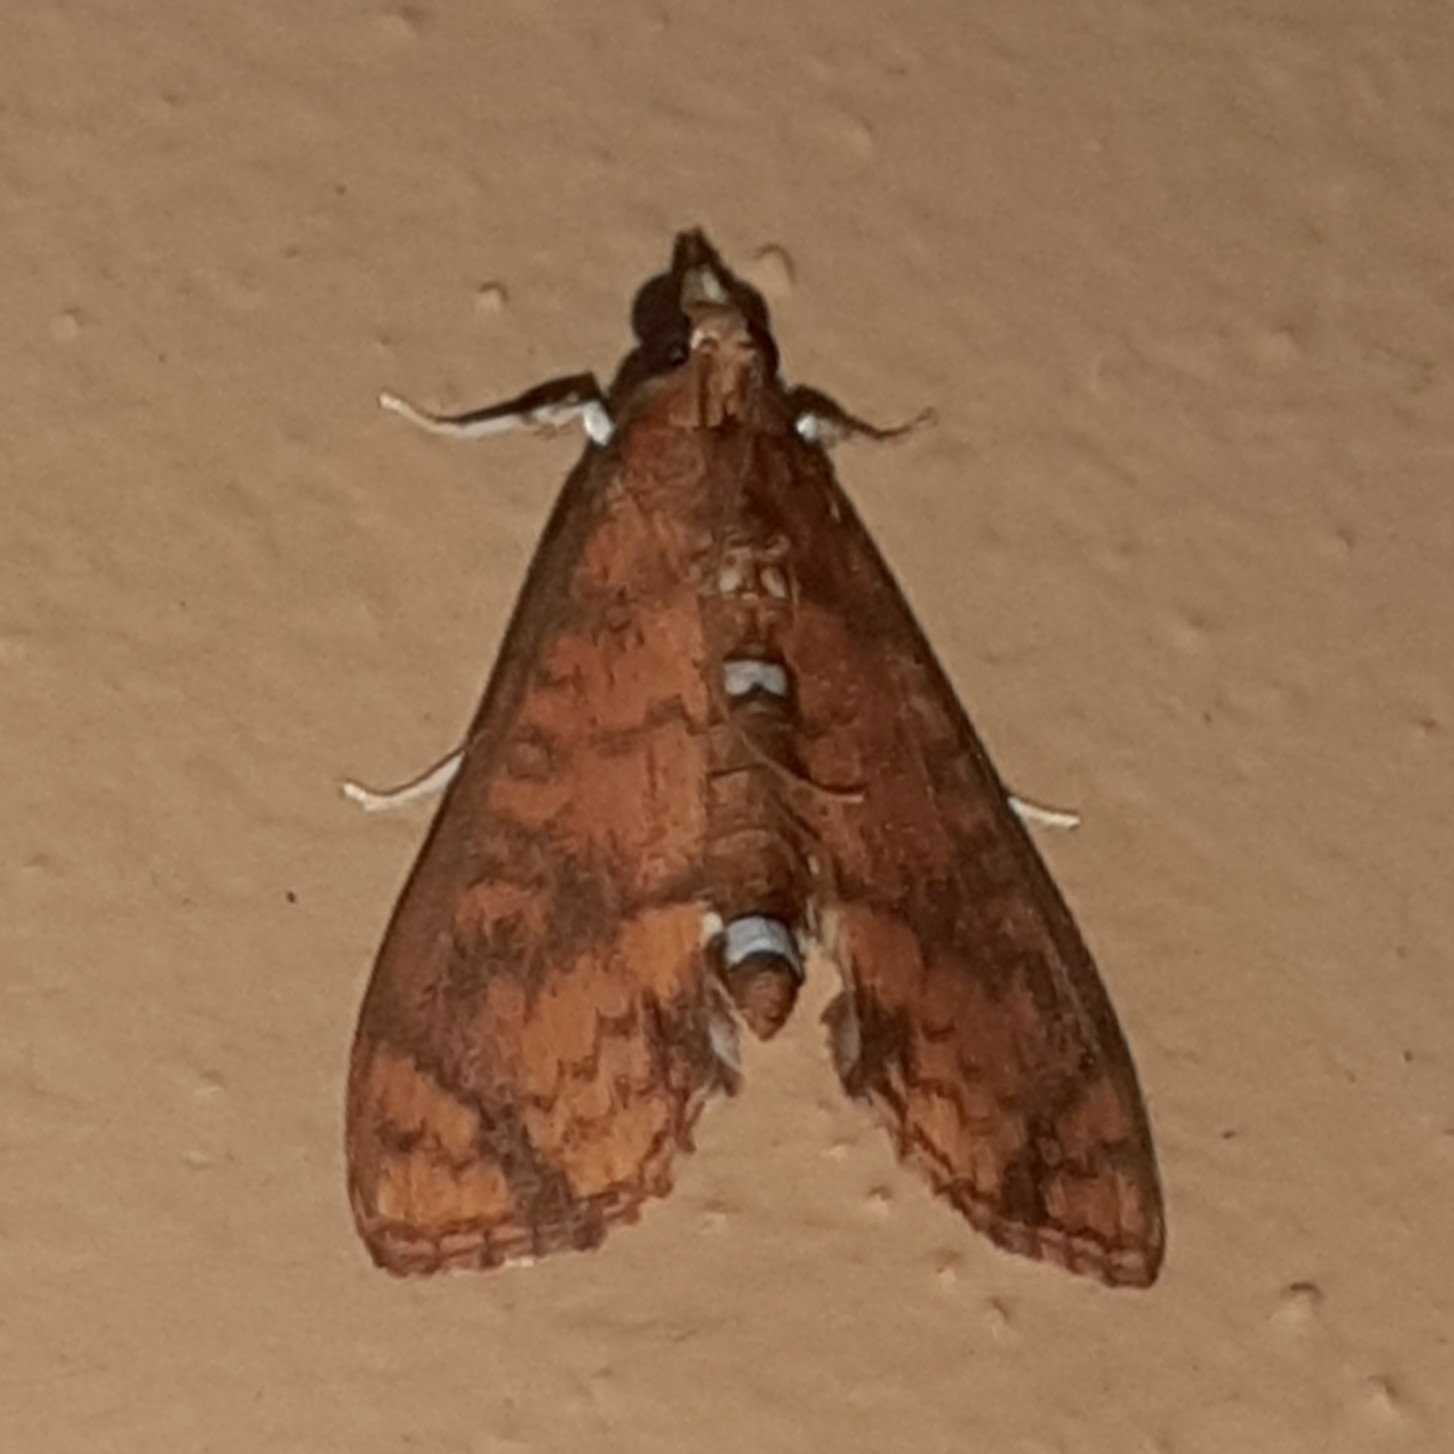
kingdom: Animalia
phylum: Arthropoda
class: Insecta
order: Lepidoptera
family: Crambidae
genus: Liopasia
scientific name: Liopasia ochracealis
